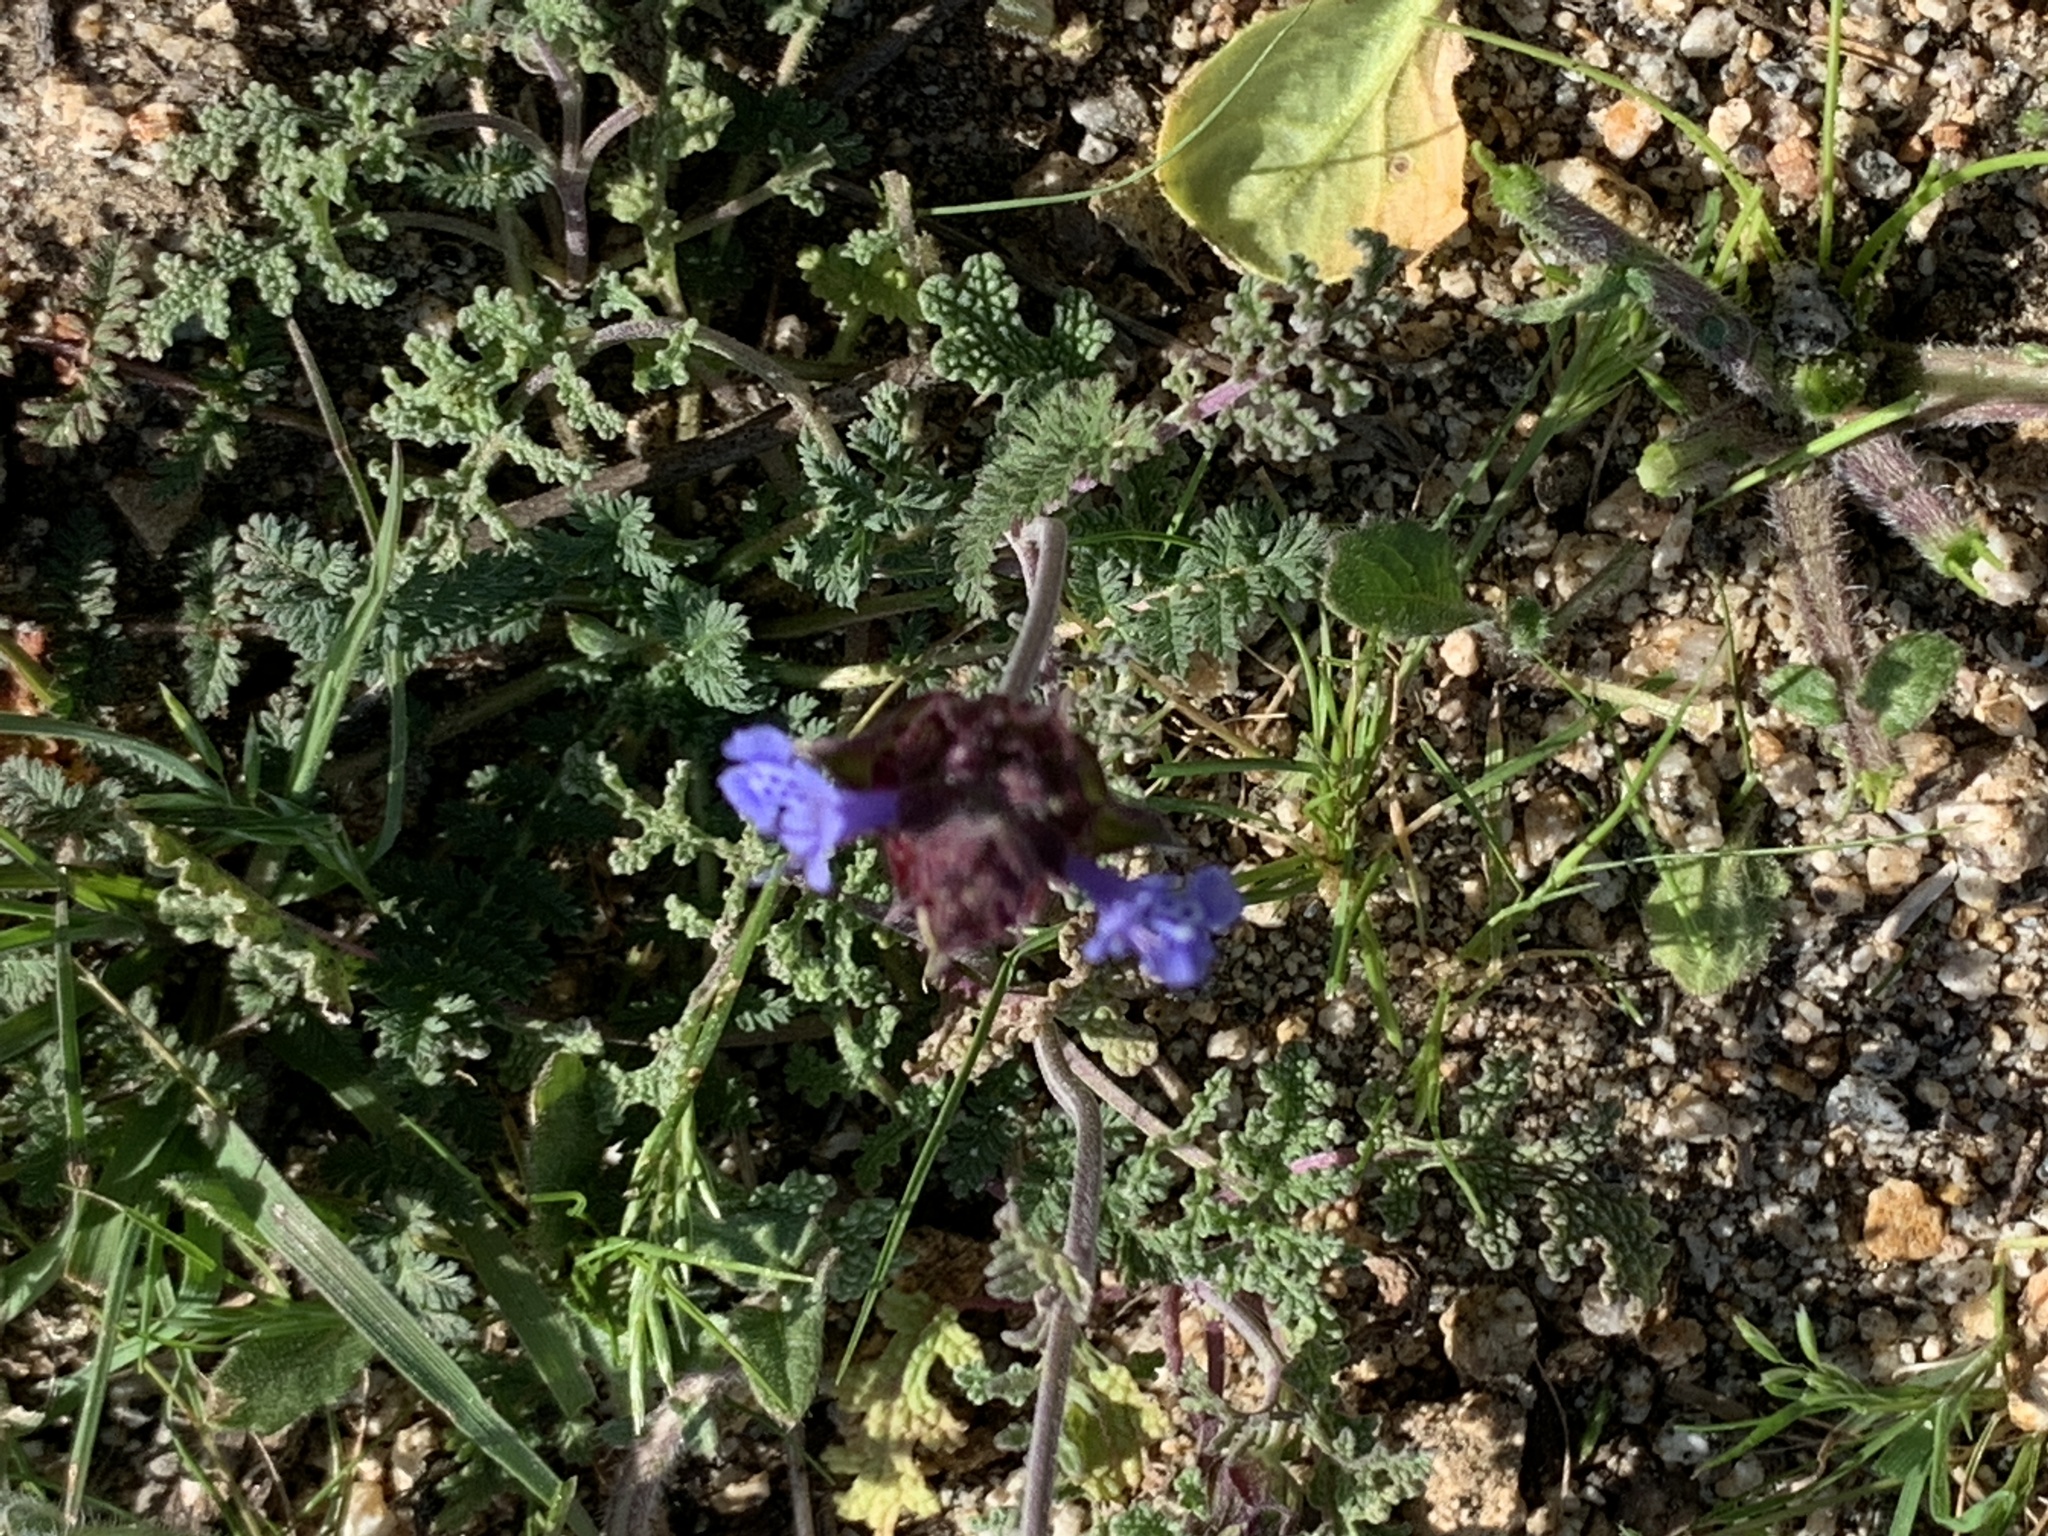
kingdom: Plantae
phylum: Tracheophyta
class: Magnoliopsida
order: Lamiales
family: Lamiaceae
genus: Salvia
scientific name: Salvia columbariae
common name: Chia
